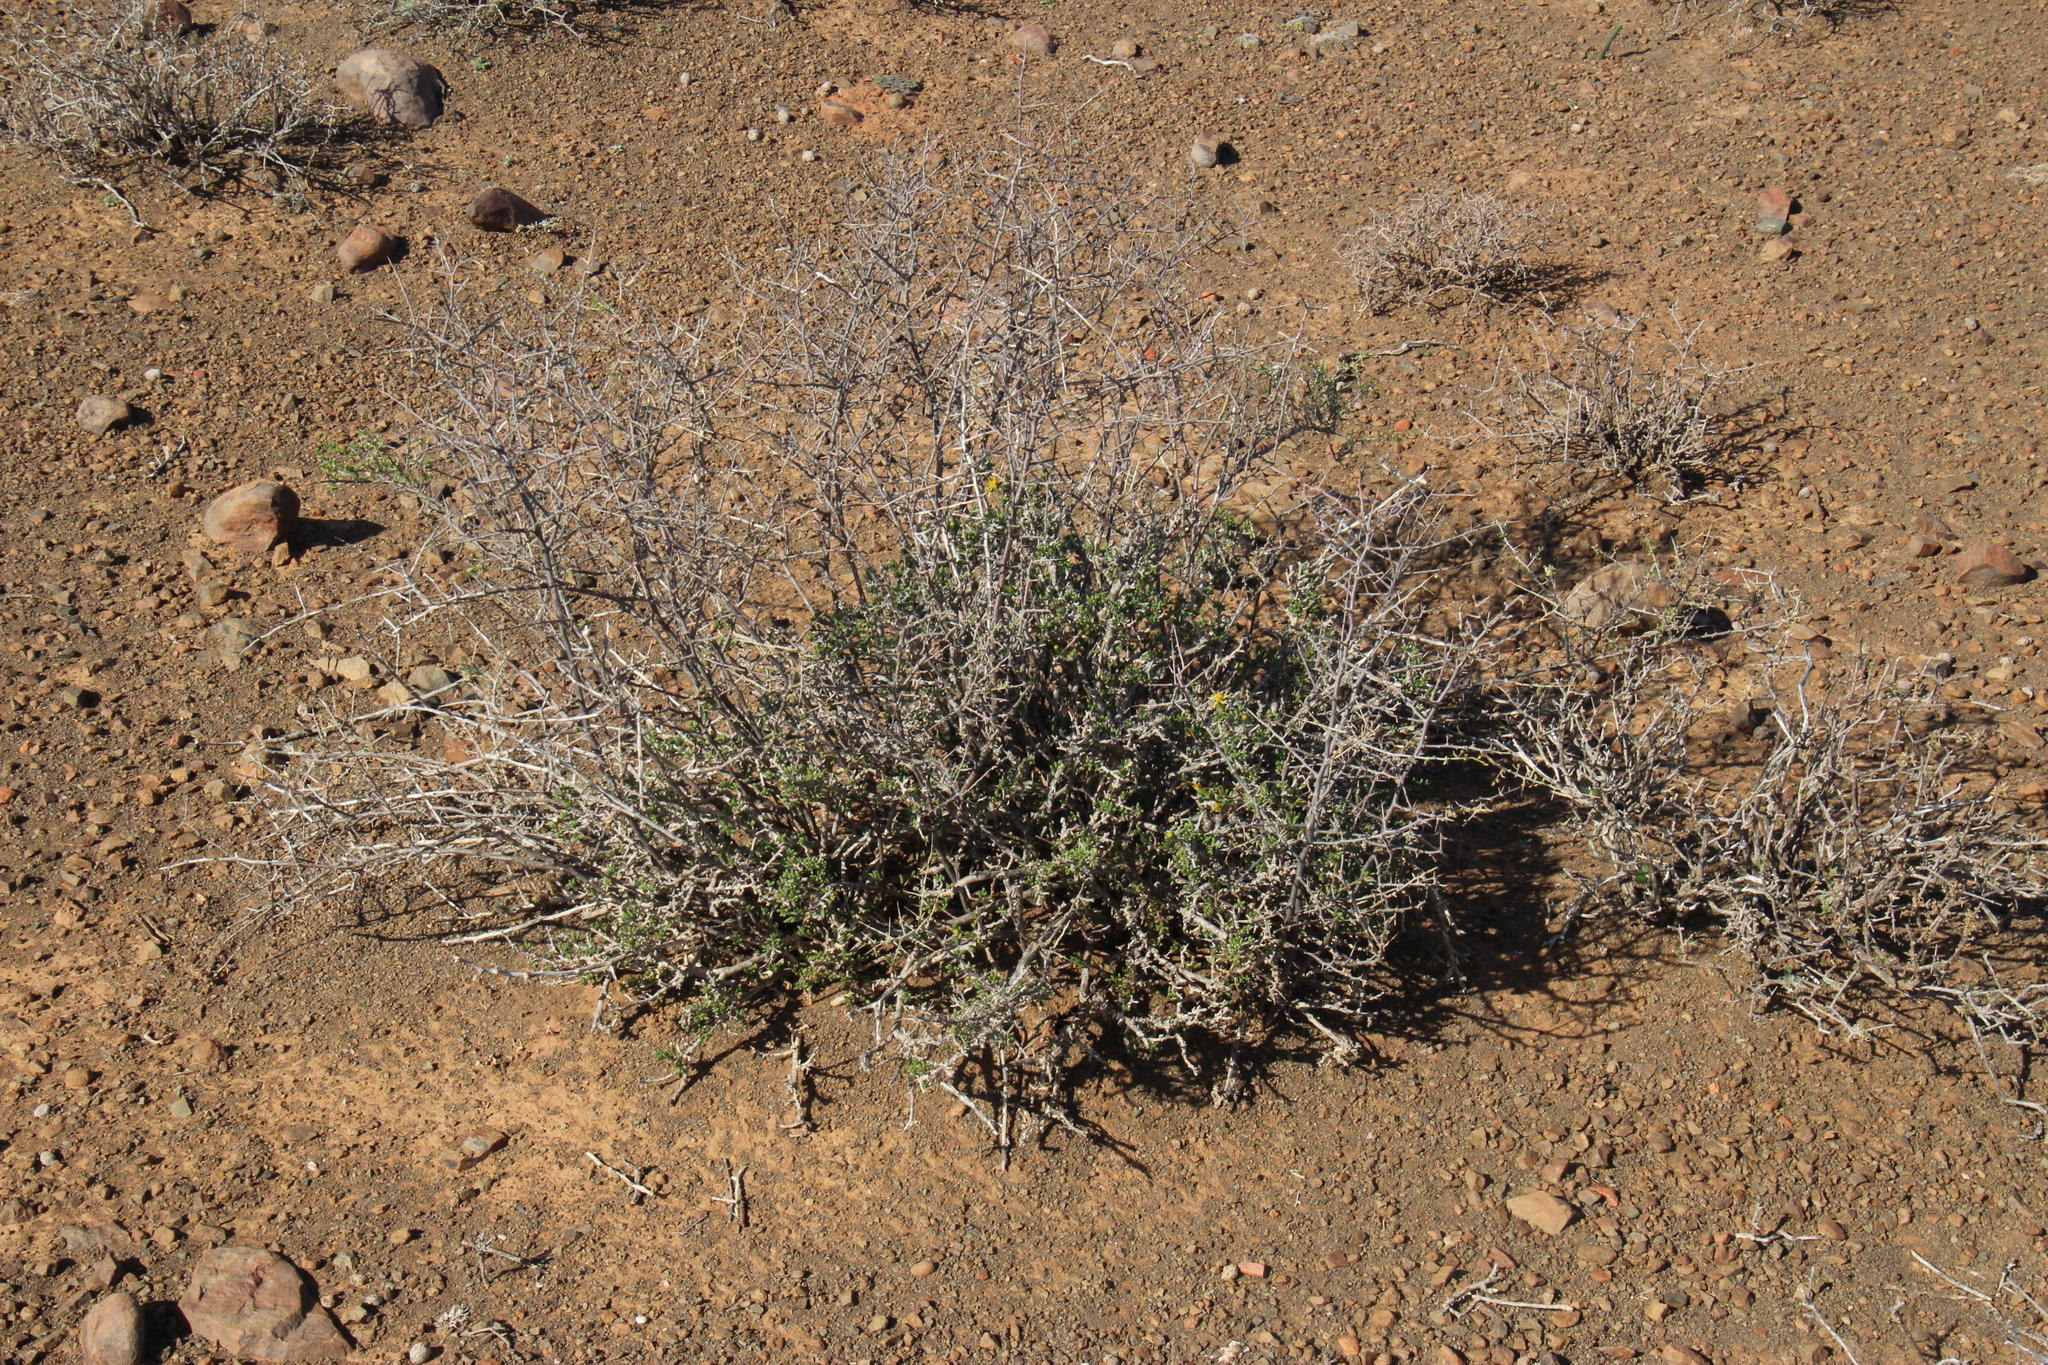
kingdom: Plantae
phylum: Tracheophyta
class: Magnoliopsida
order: Asterales
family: Asteraceae
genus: Senecio
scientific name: Senecio acutifolius
